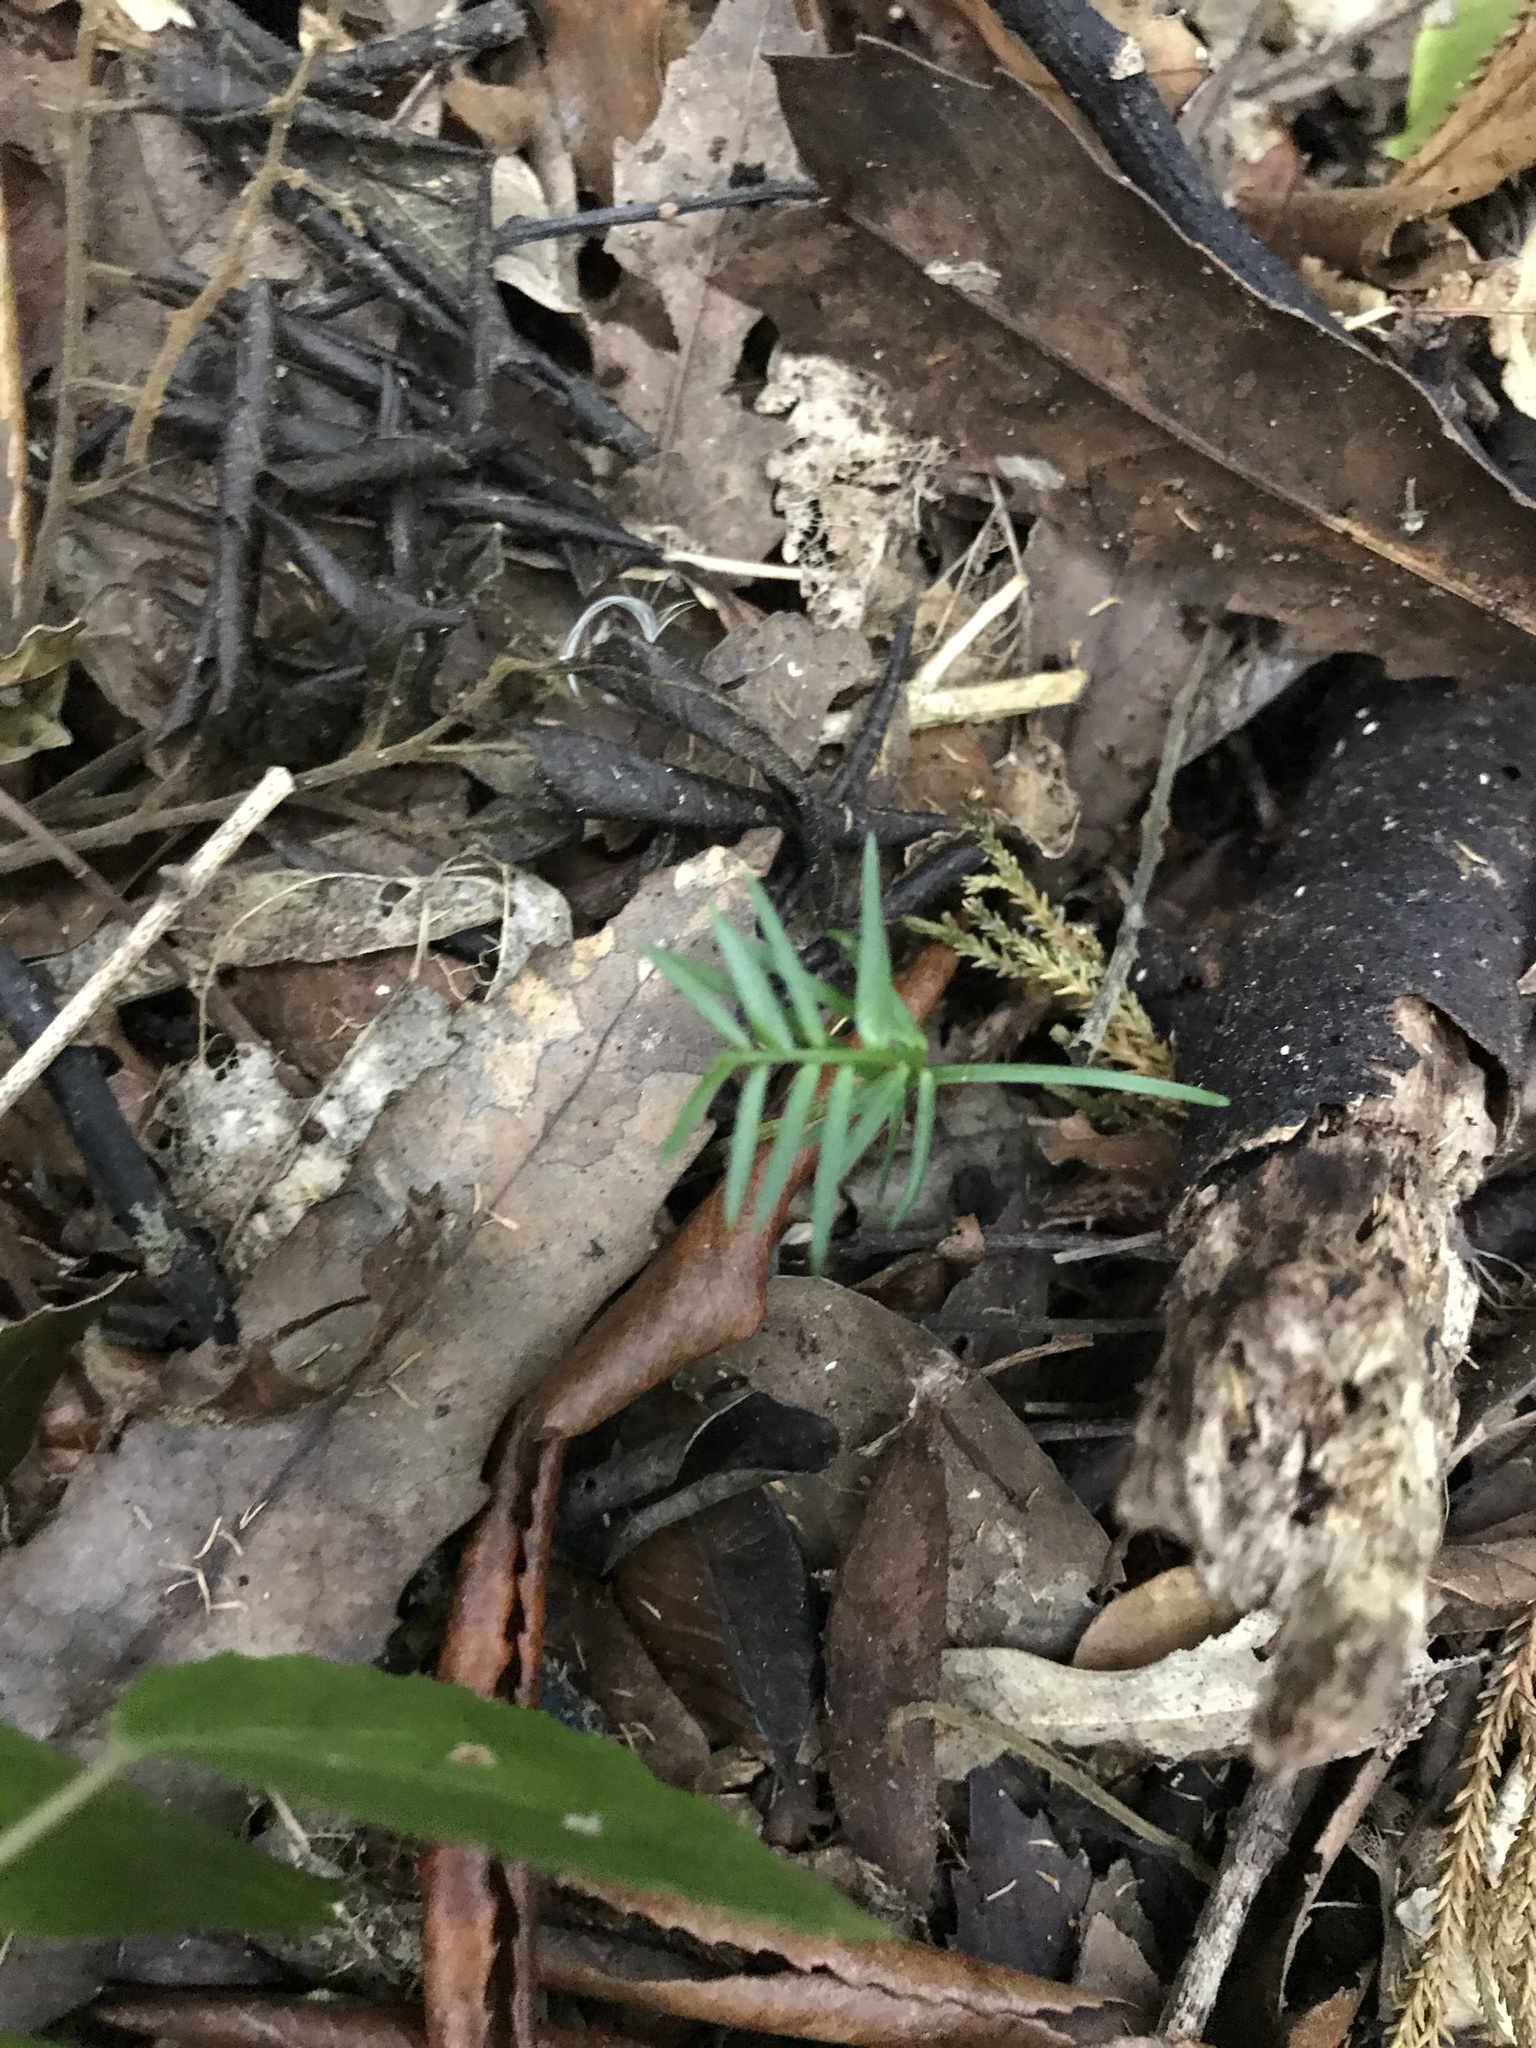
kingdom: Plantae
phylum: Tracheophyta
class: Pinopsida
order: Pinales
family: Podocarpaceae
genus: Prumnopitys
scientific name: Prumnopitys ferruginea
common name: Brown pine
